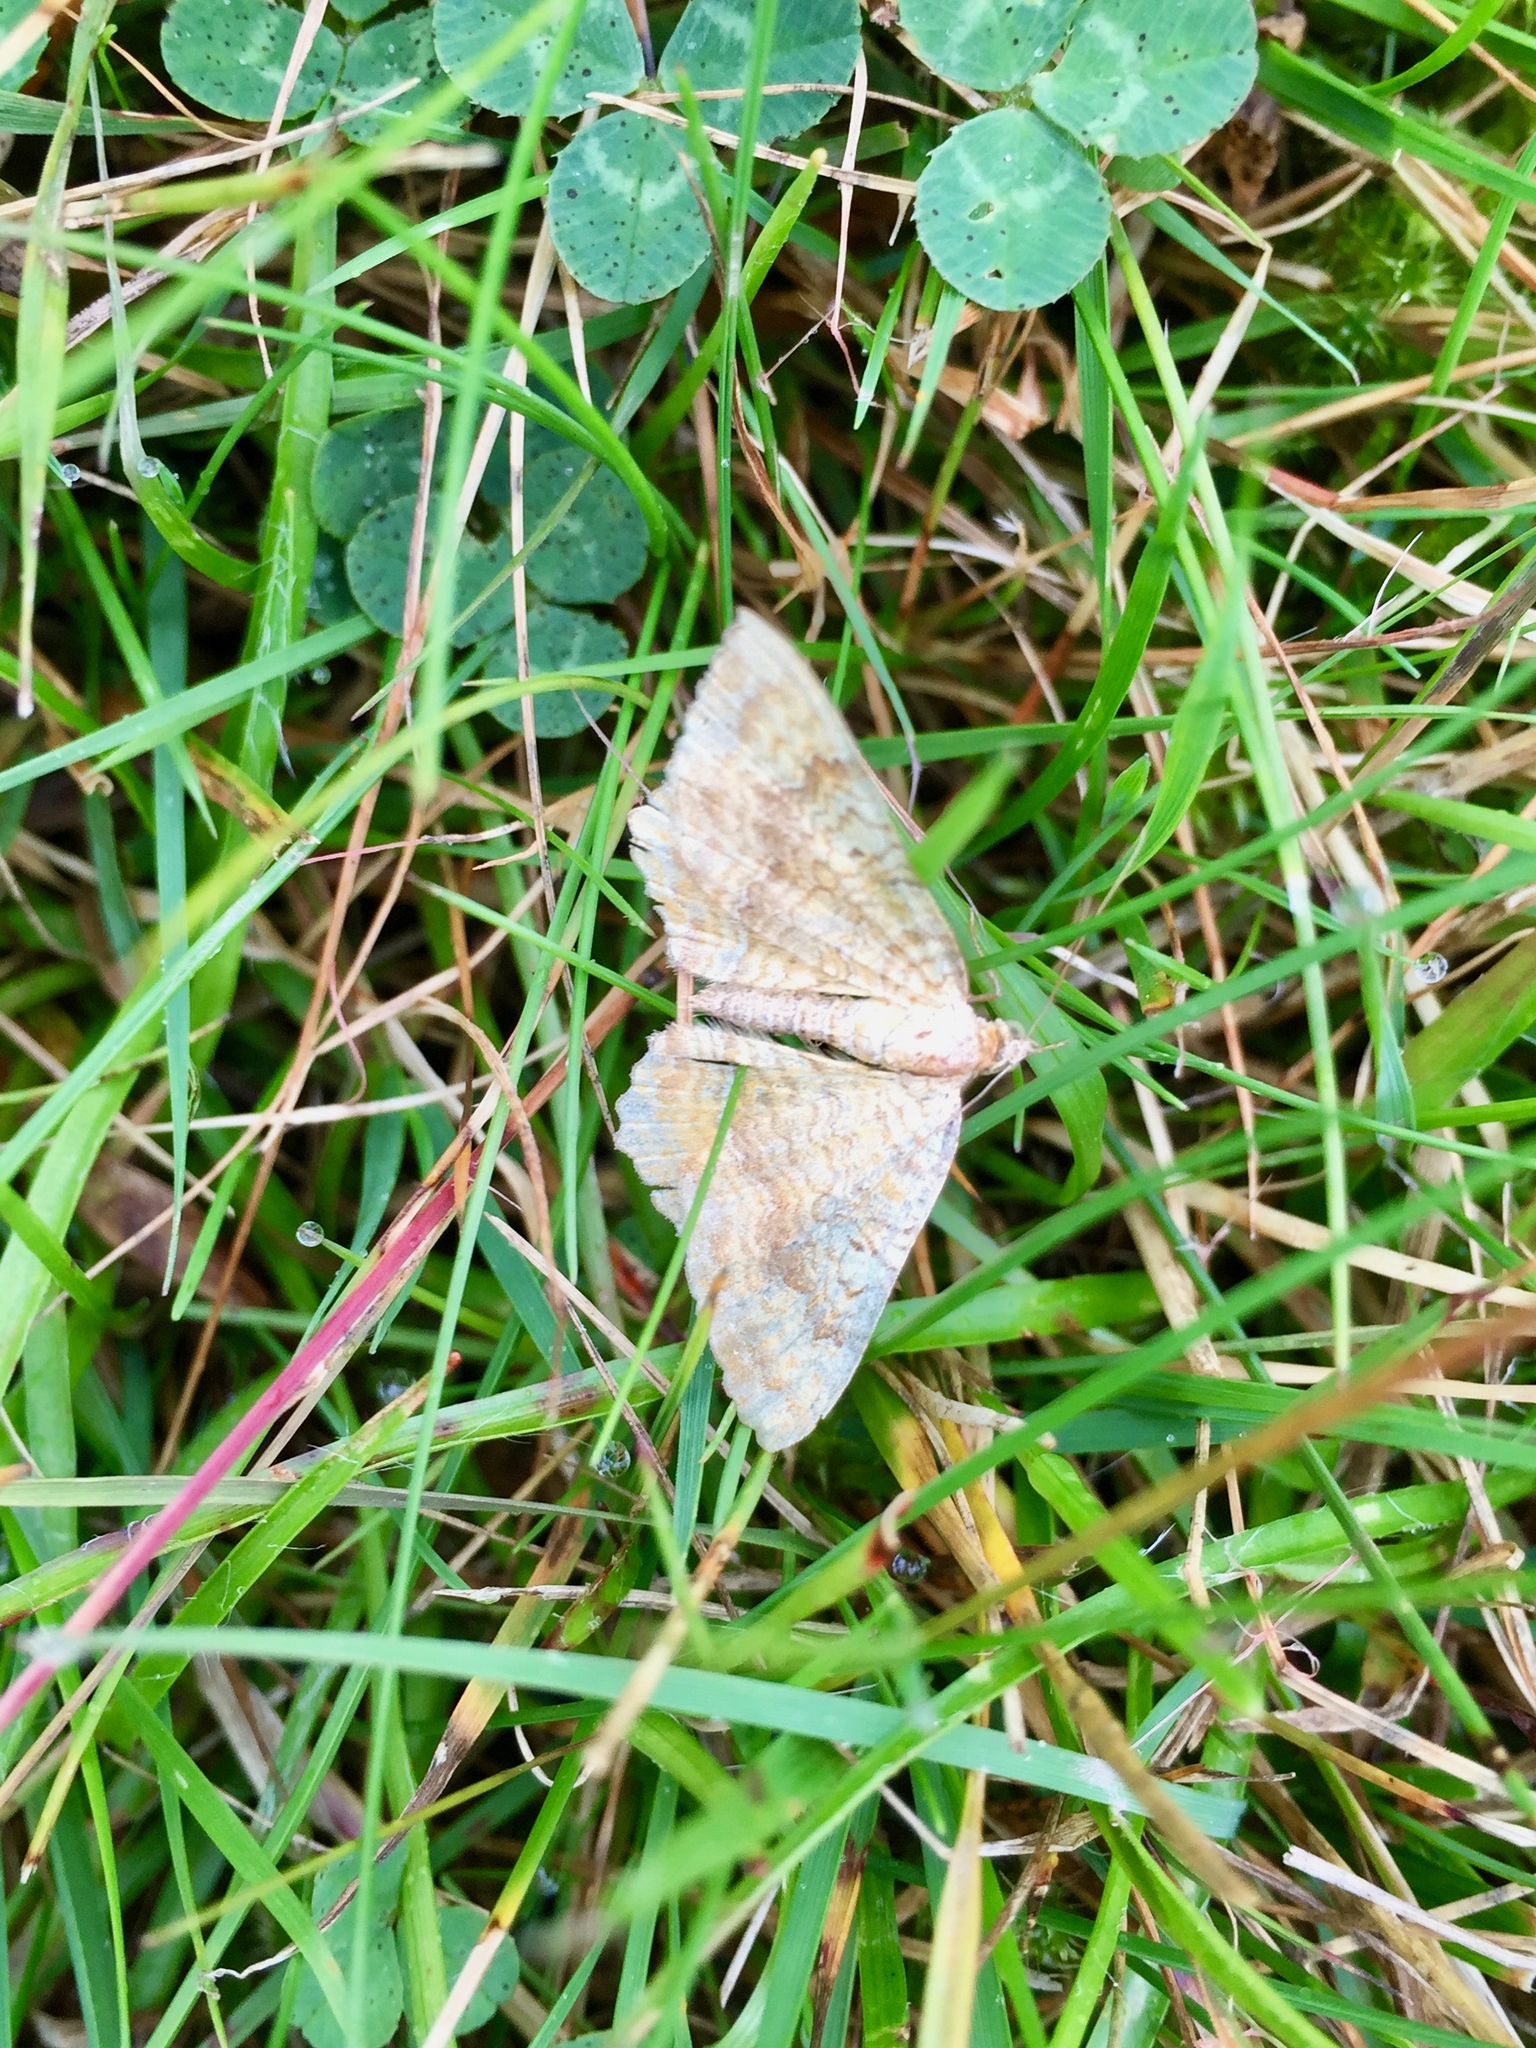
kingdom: Animalia
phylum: Arthropoda
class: Insecta
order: Lepidoptera
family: Geometridae
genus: Camptogramma
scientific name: Camptogramma bilineata
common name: Yellow shell
